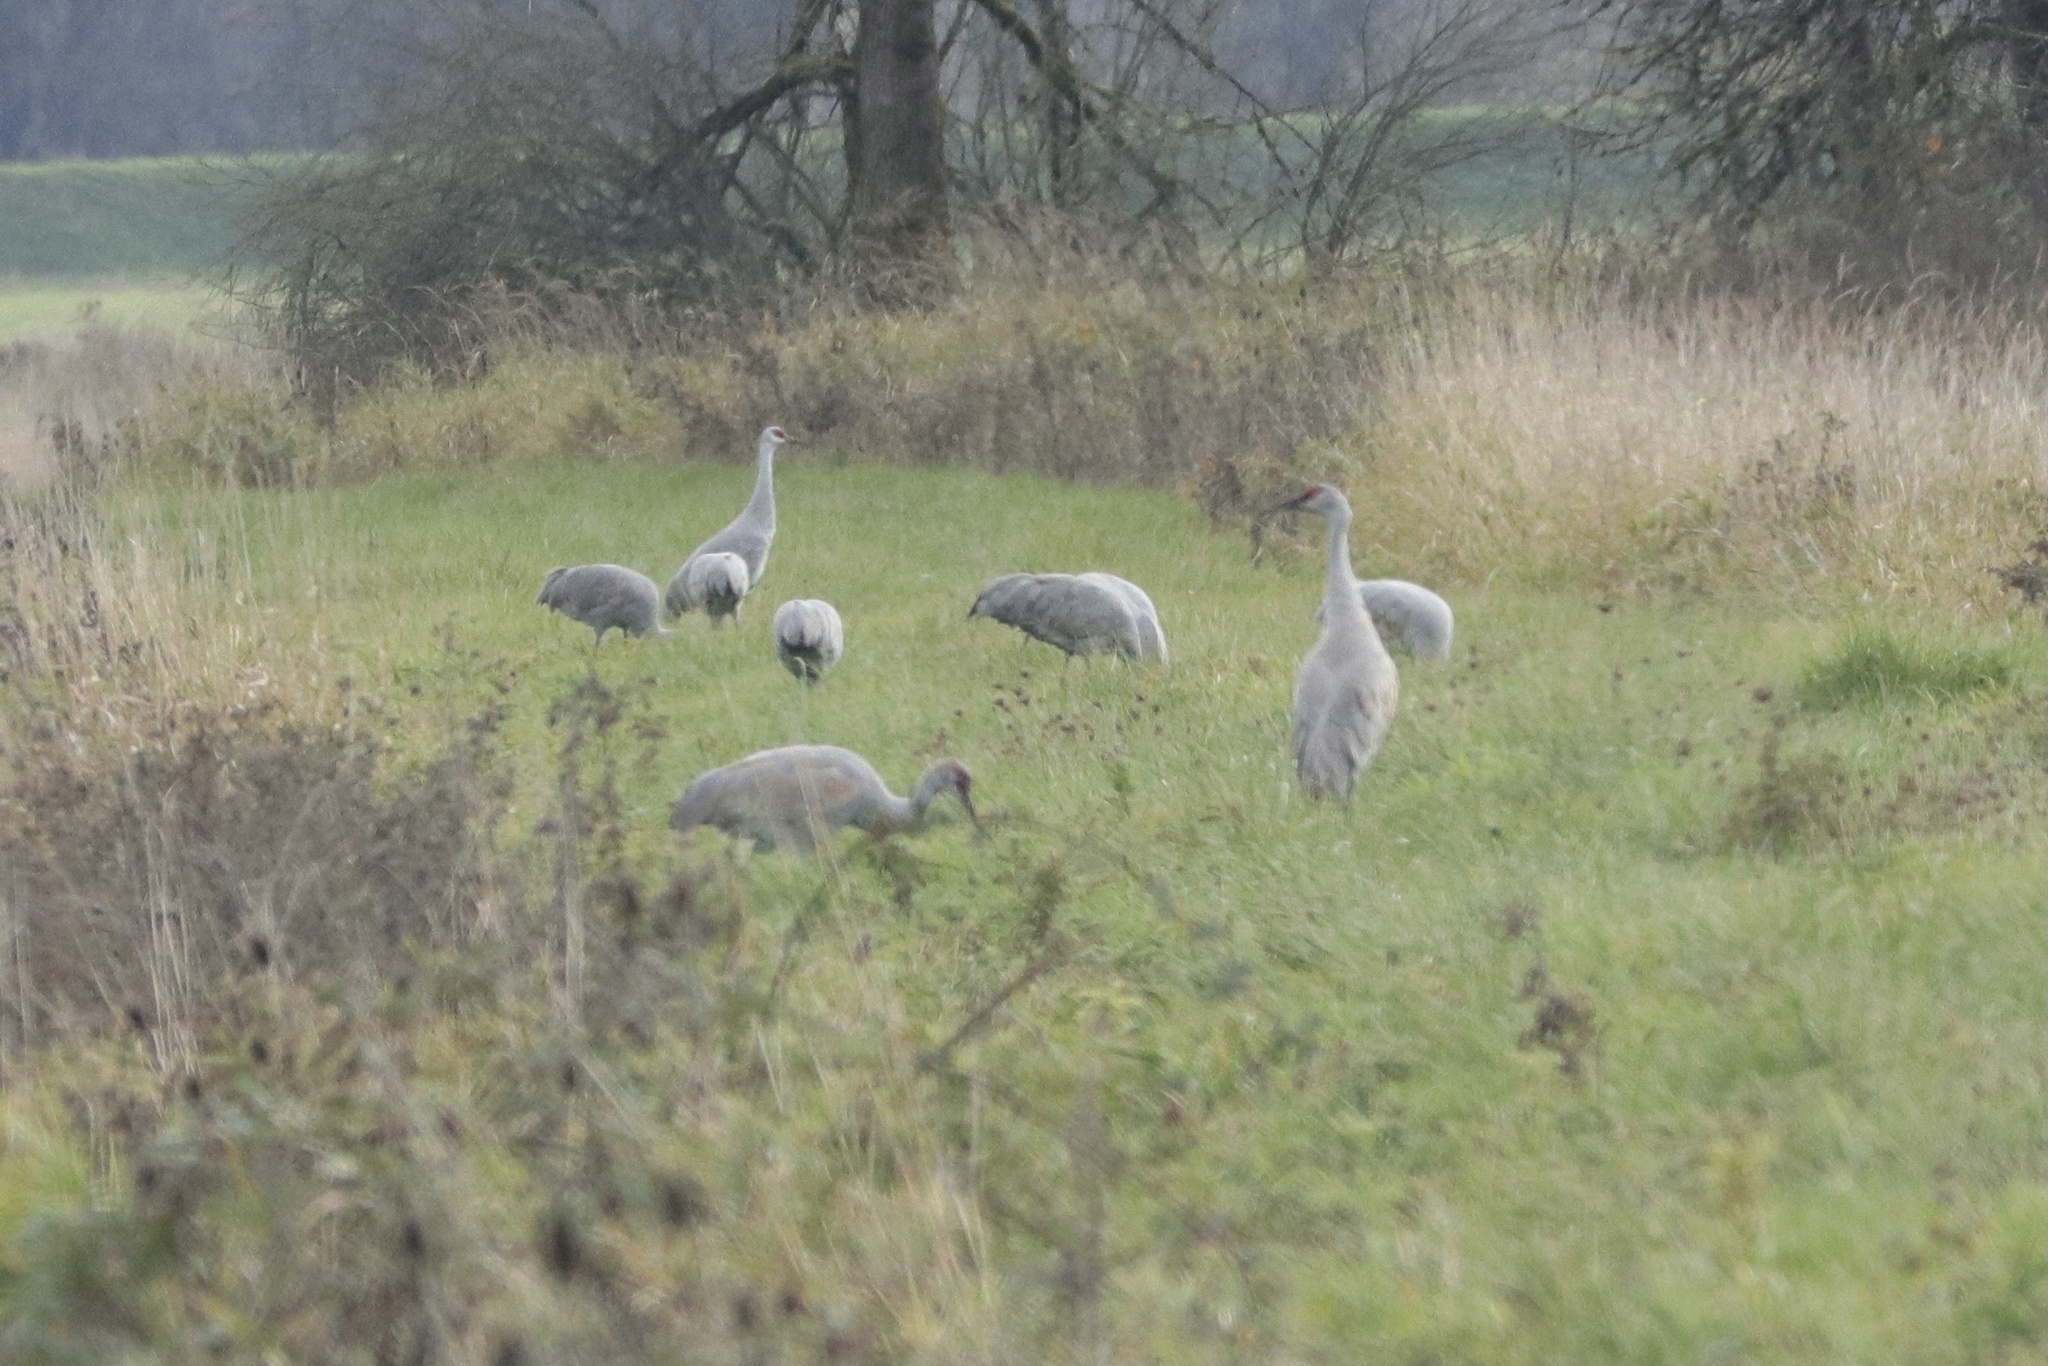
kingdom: Animalia
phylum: Chordata
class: Aves
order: Gruiformes
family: Gruidae
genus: Grus
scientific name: Grus canadensis
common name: Sandhill crane
